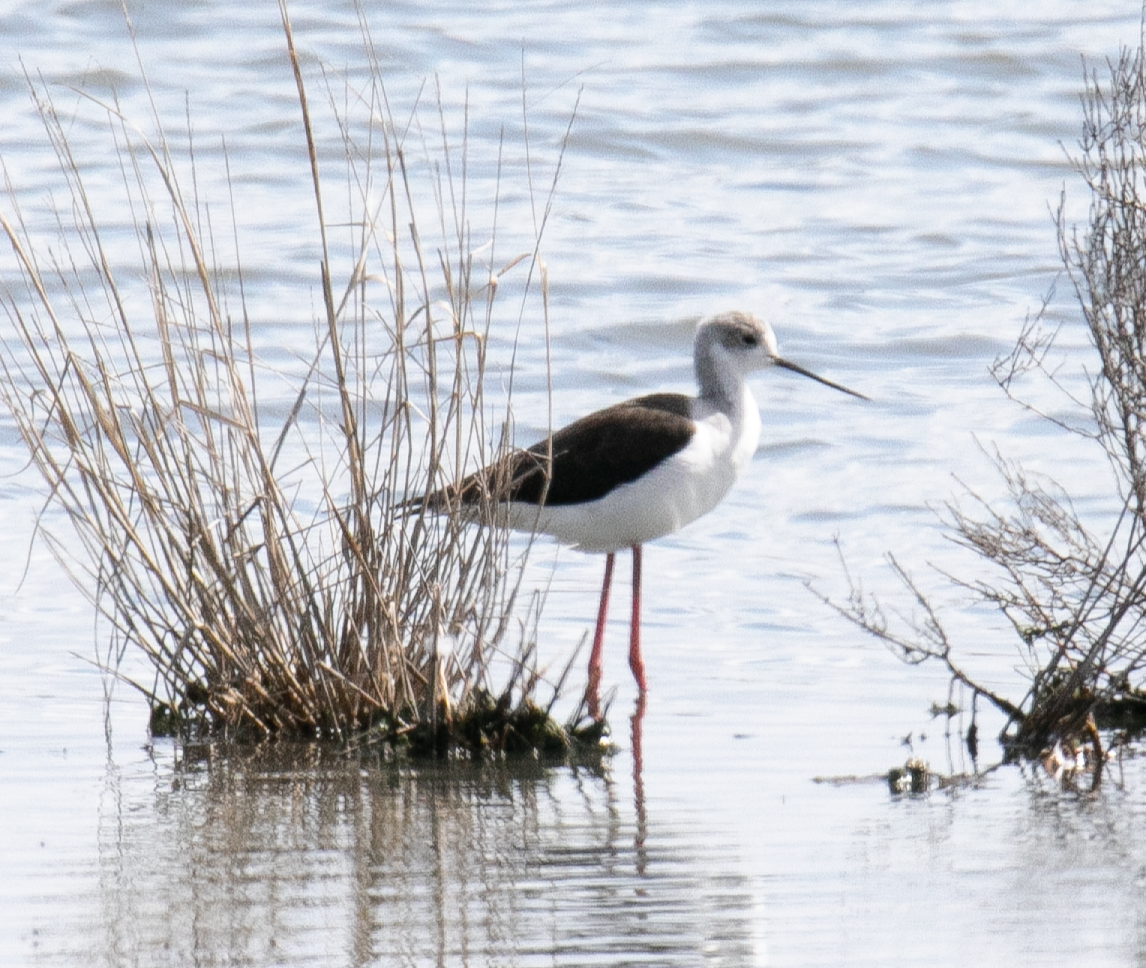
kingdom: Animalia
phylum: Chordata
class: Aves
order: Charadriiformes
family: Recurvirostridae
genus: Himantopus
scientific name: Himantopus himantopus
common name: Black-winged stilt
